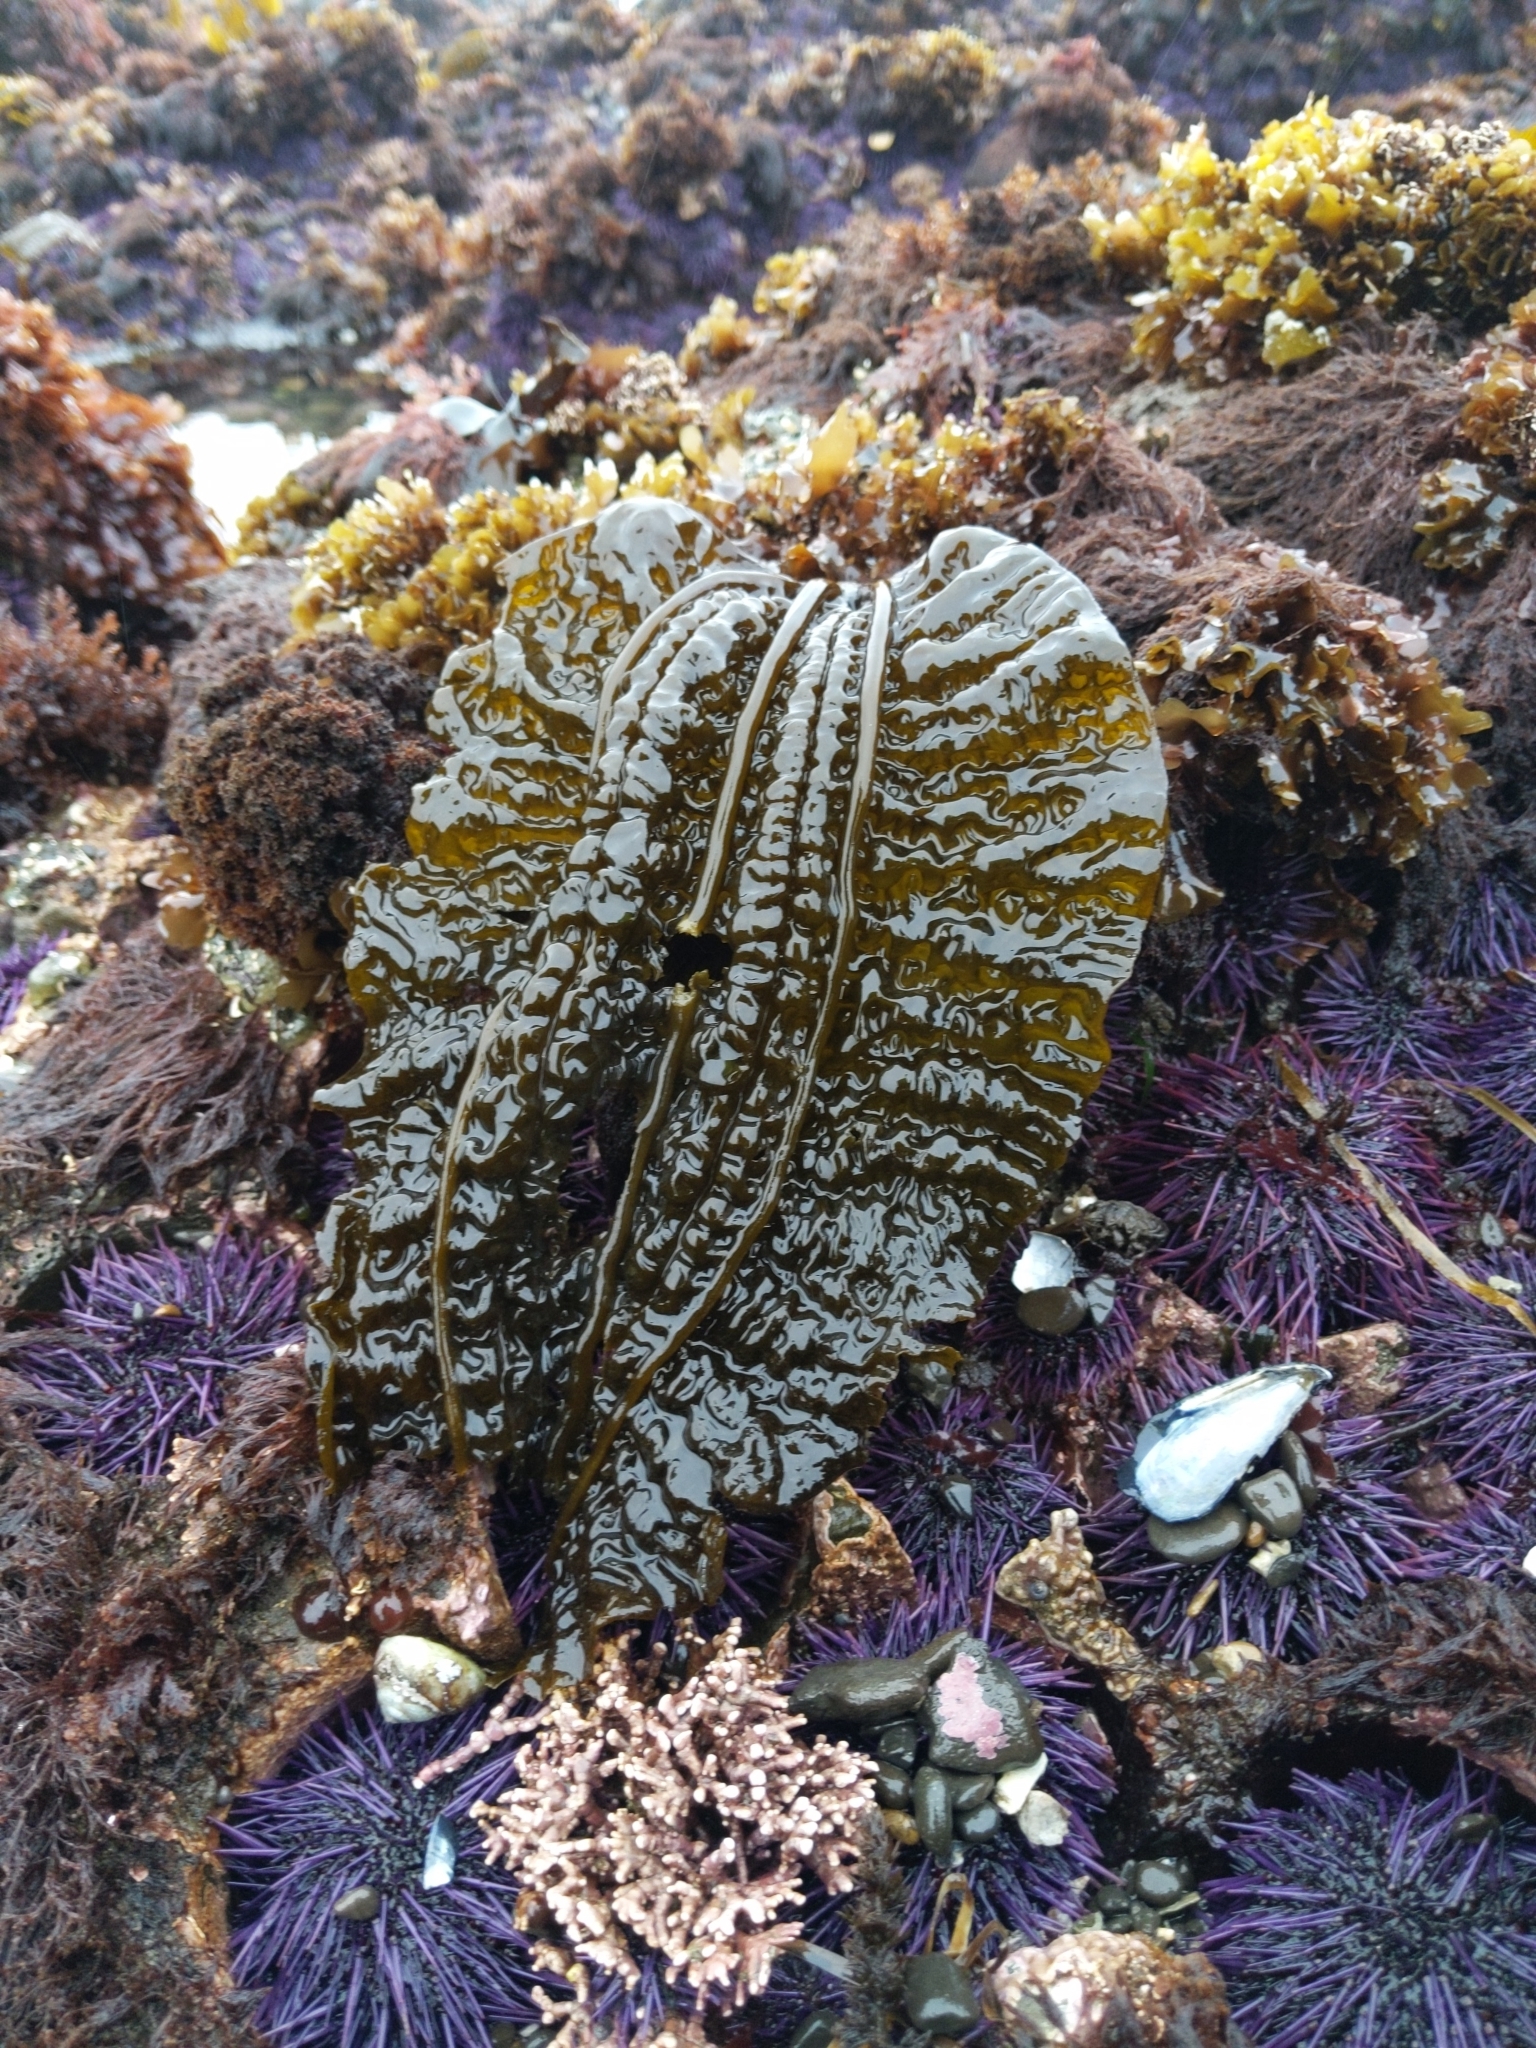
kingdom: Chromista
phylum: Ochrophyta
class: Phaeophyceae
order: Laminariales
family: Costariaceae
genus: Costaria
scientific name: Costaria costata
